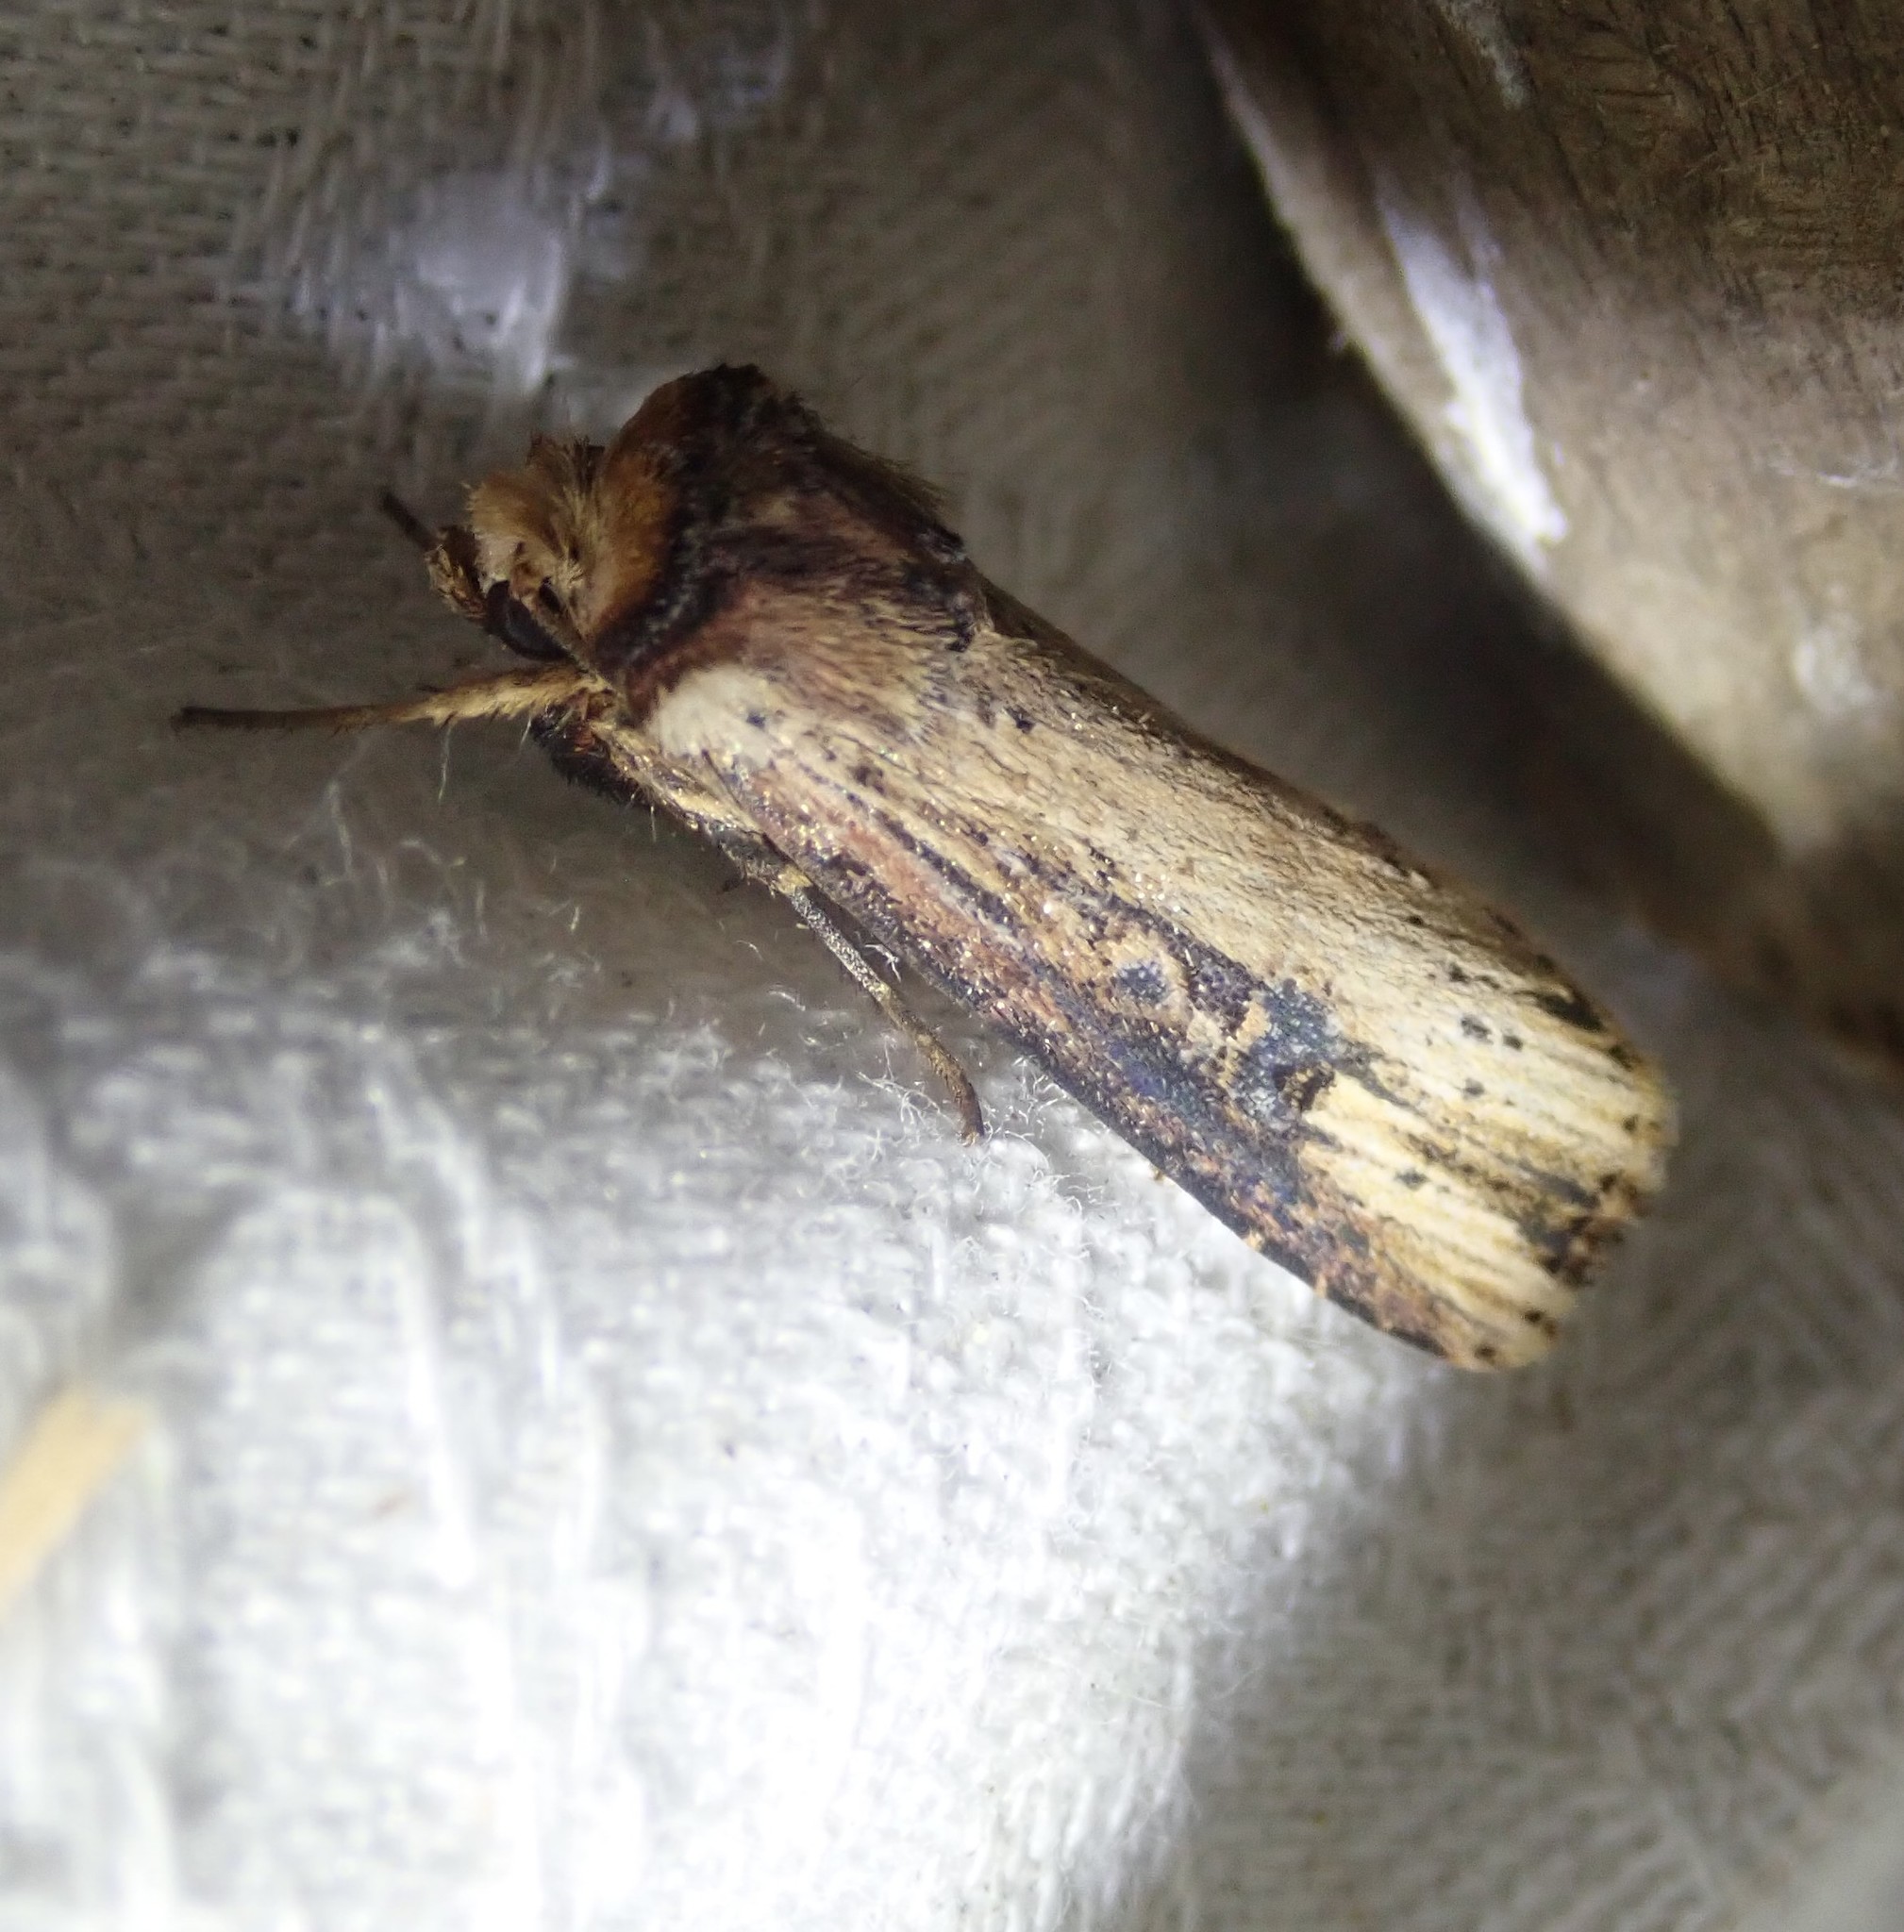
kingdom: Animalia
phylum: Arthropoda
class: Insecta
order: Lepidoptera
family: Noctuidae
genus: Axylia
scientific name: Axylia putris
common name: Flame
